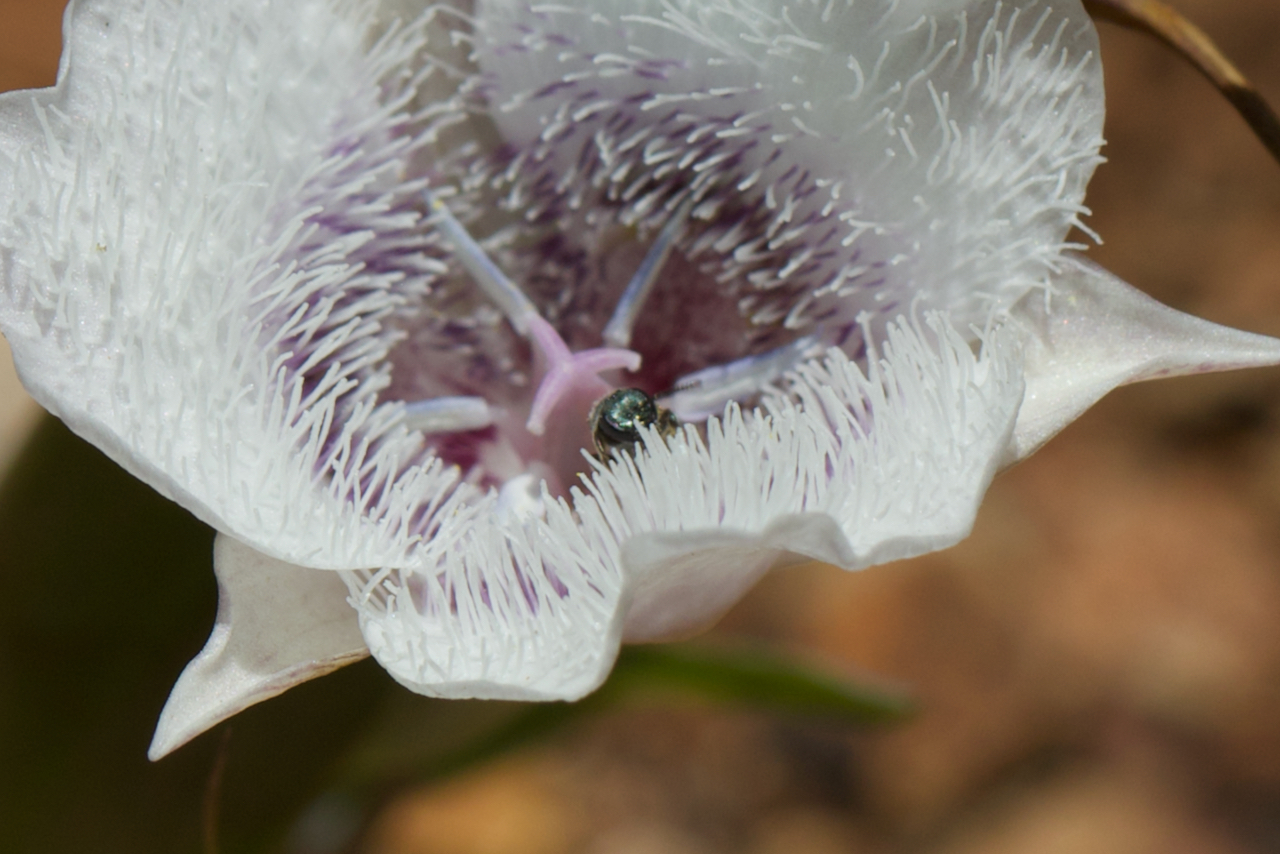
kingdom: Animalia
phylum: Arthropoda
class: Insecta
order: Hymenoptera
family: Halictidae
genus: Dialictus
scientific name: Dialictus
